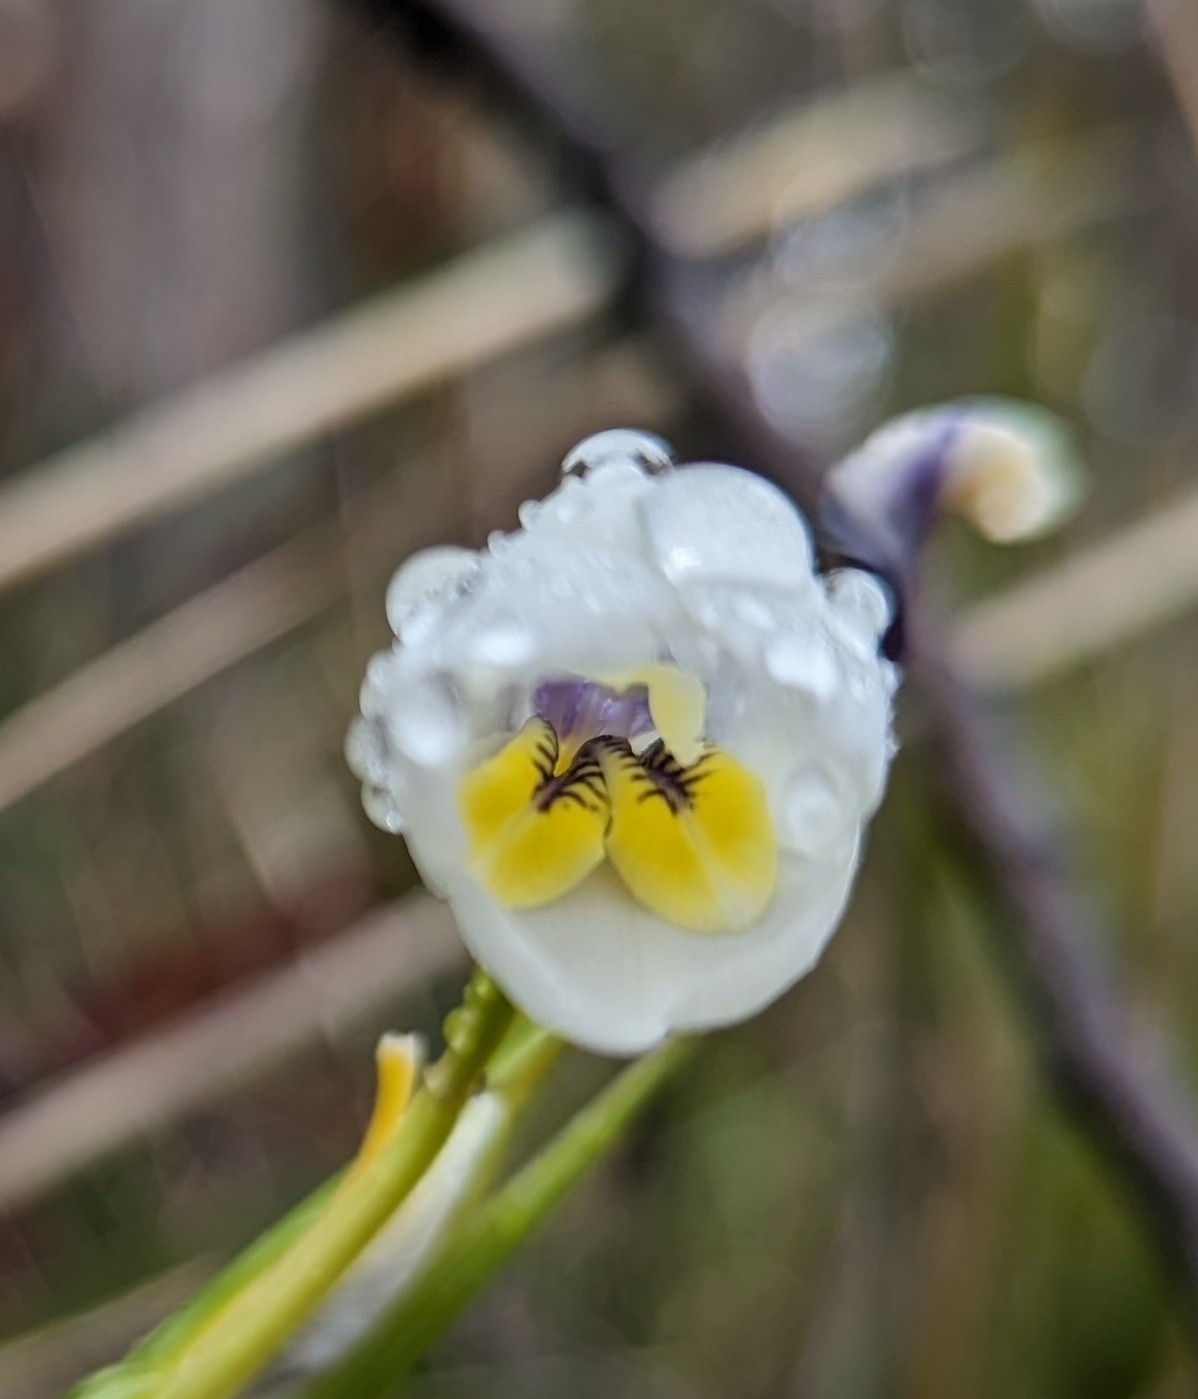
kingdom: Plantae
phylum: Tracheophyta
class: Liliopsida
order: Asparagales
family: Iridaceae
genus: Diplarrena
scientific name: Diplarrena moraea
